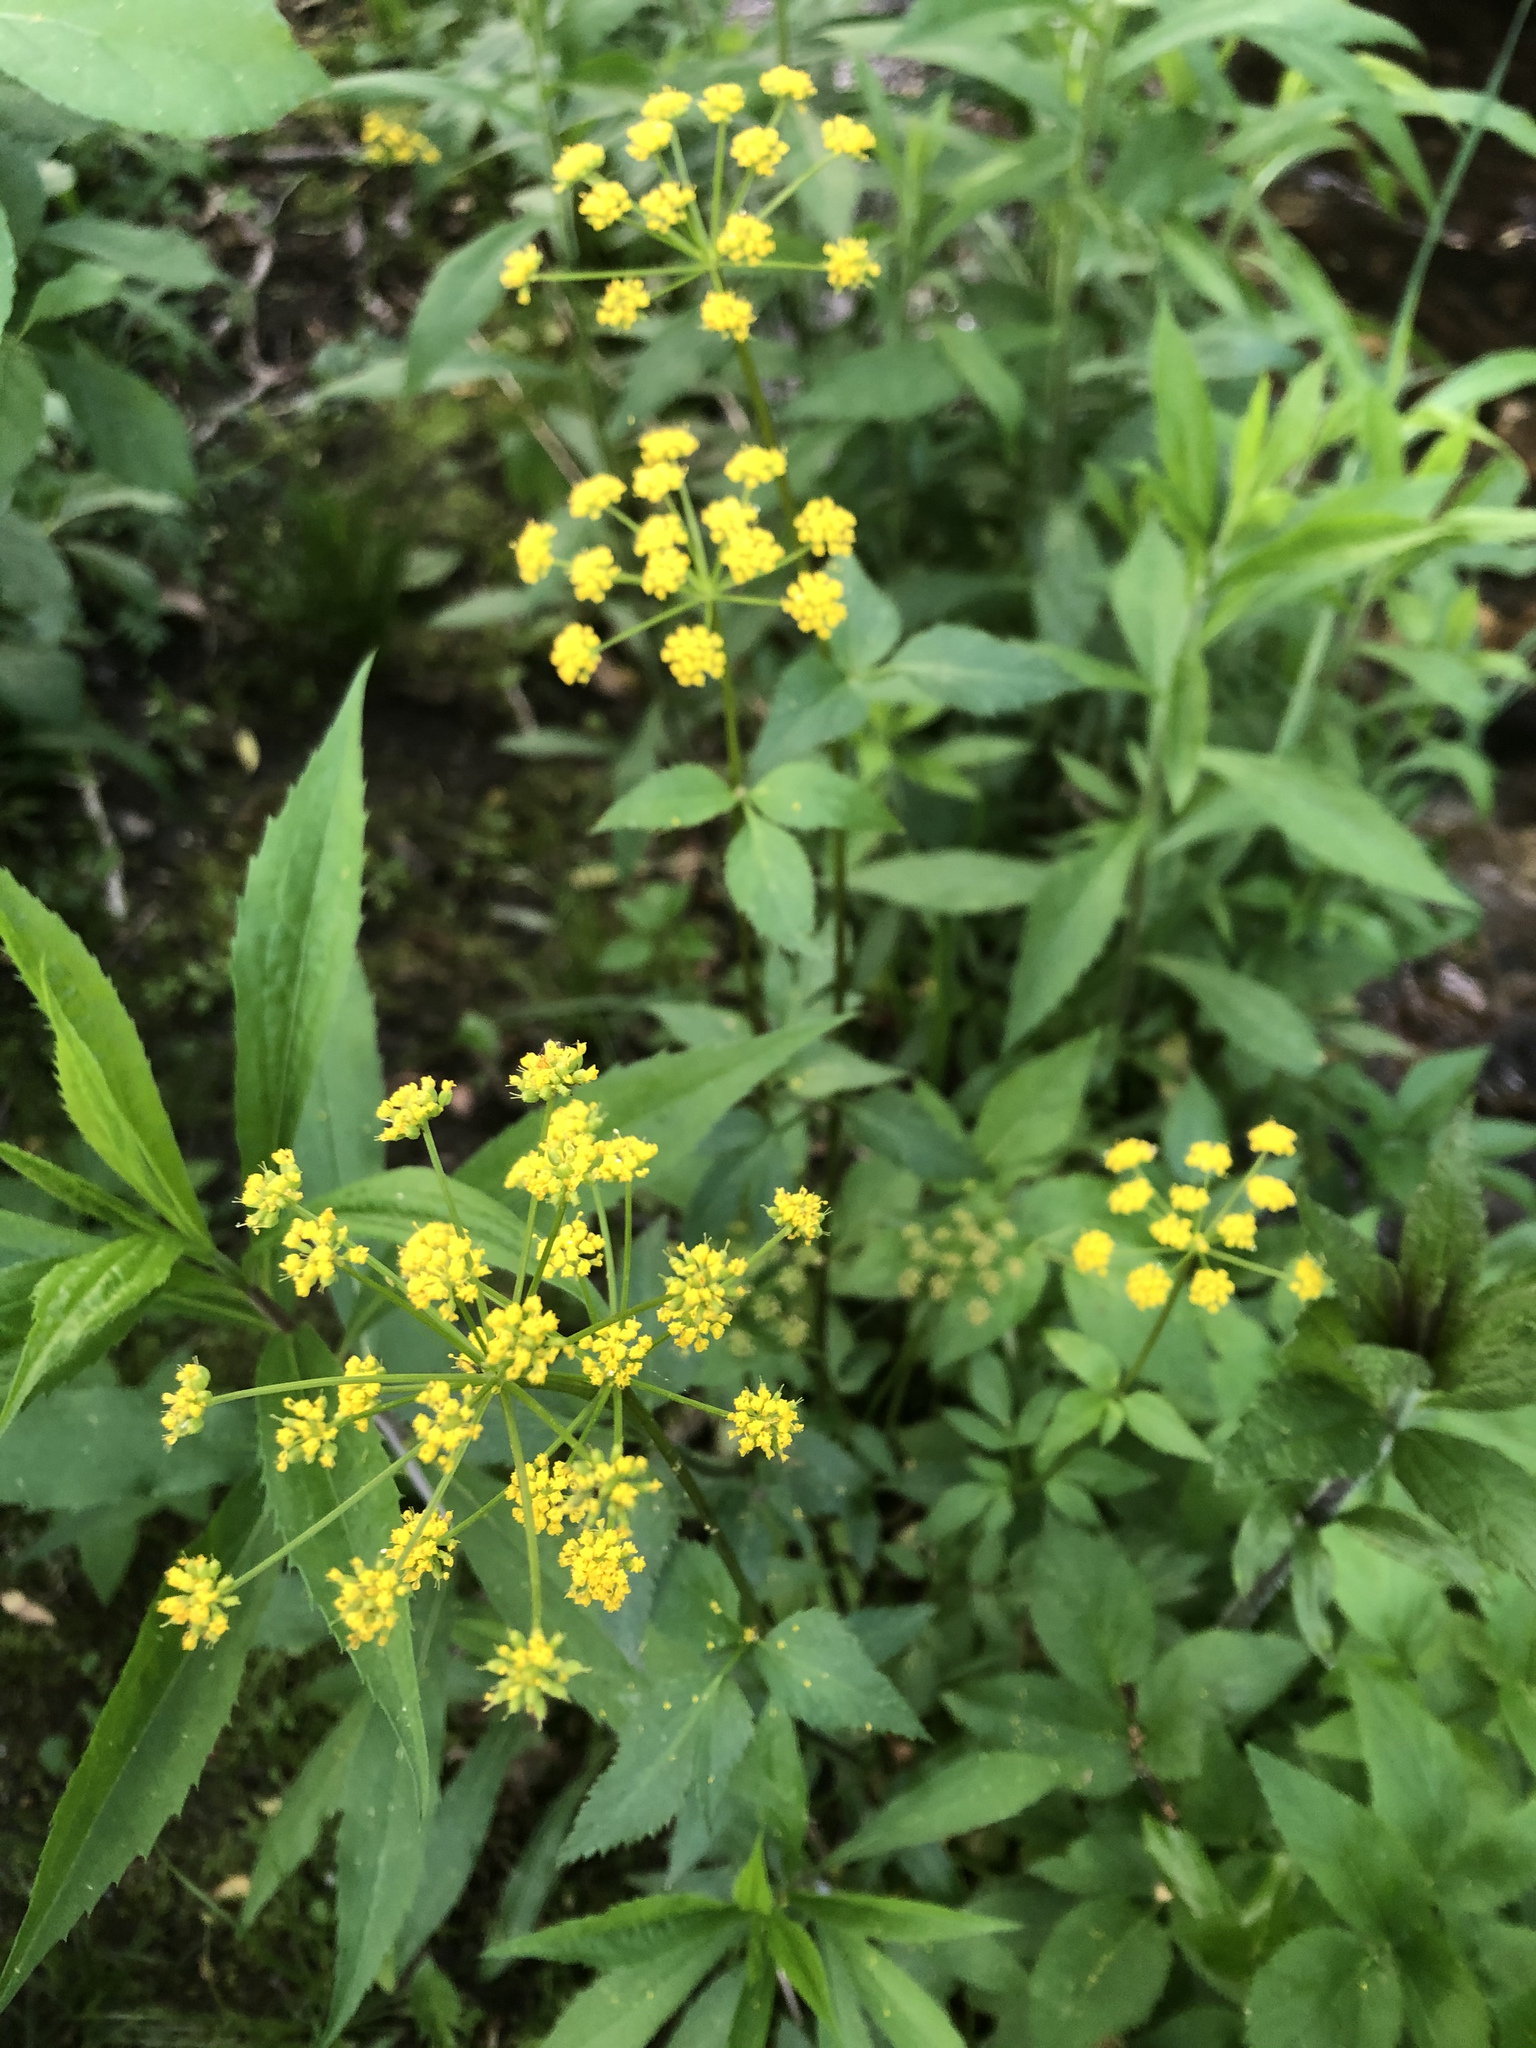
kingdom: Plantae
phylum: Tracheophyta
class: Magnoliopsida
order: Apiales
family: Apiaceae
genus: Zizia
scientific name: Zizia aurea
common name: Golden alexanders
